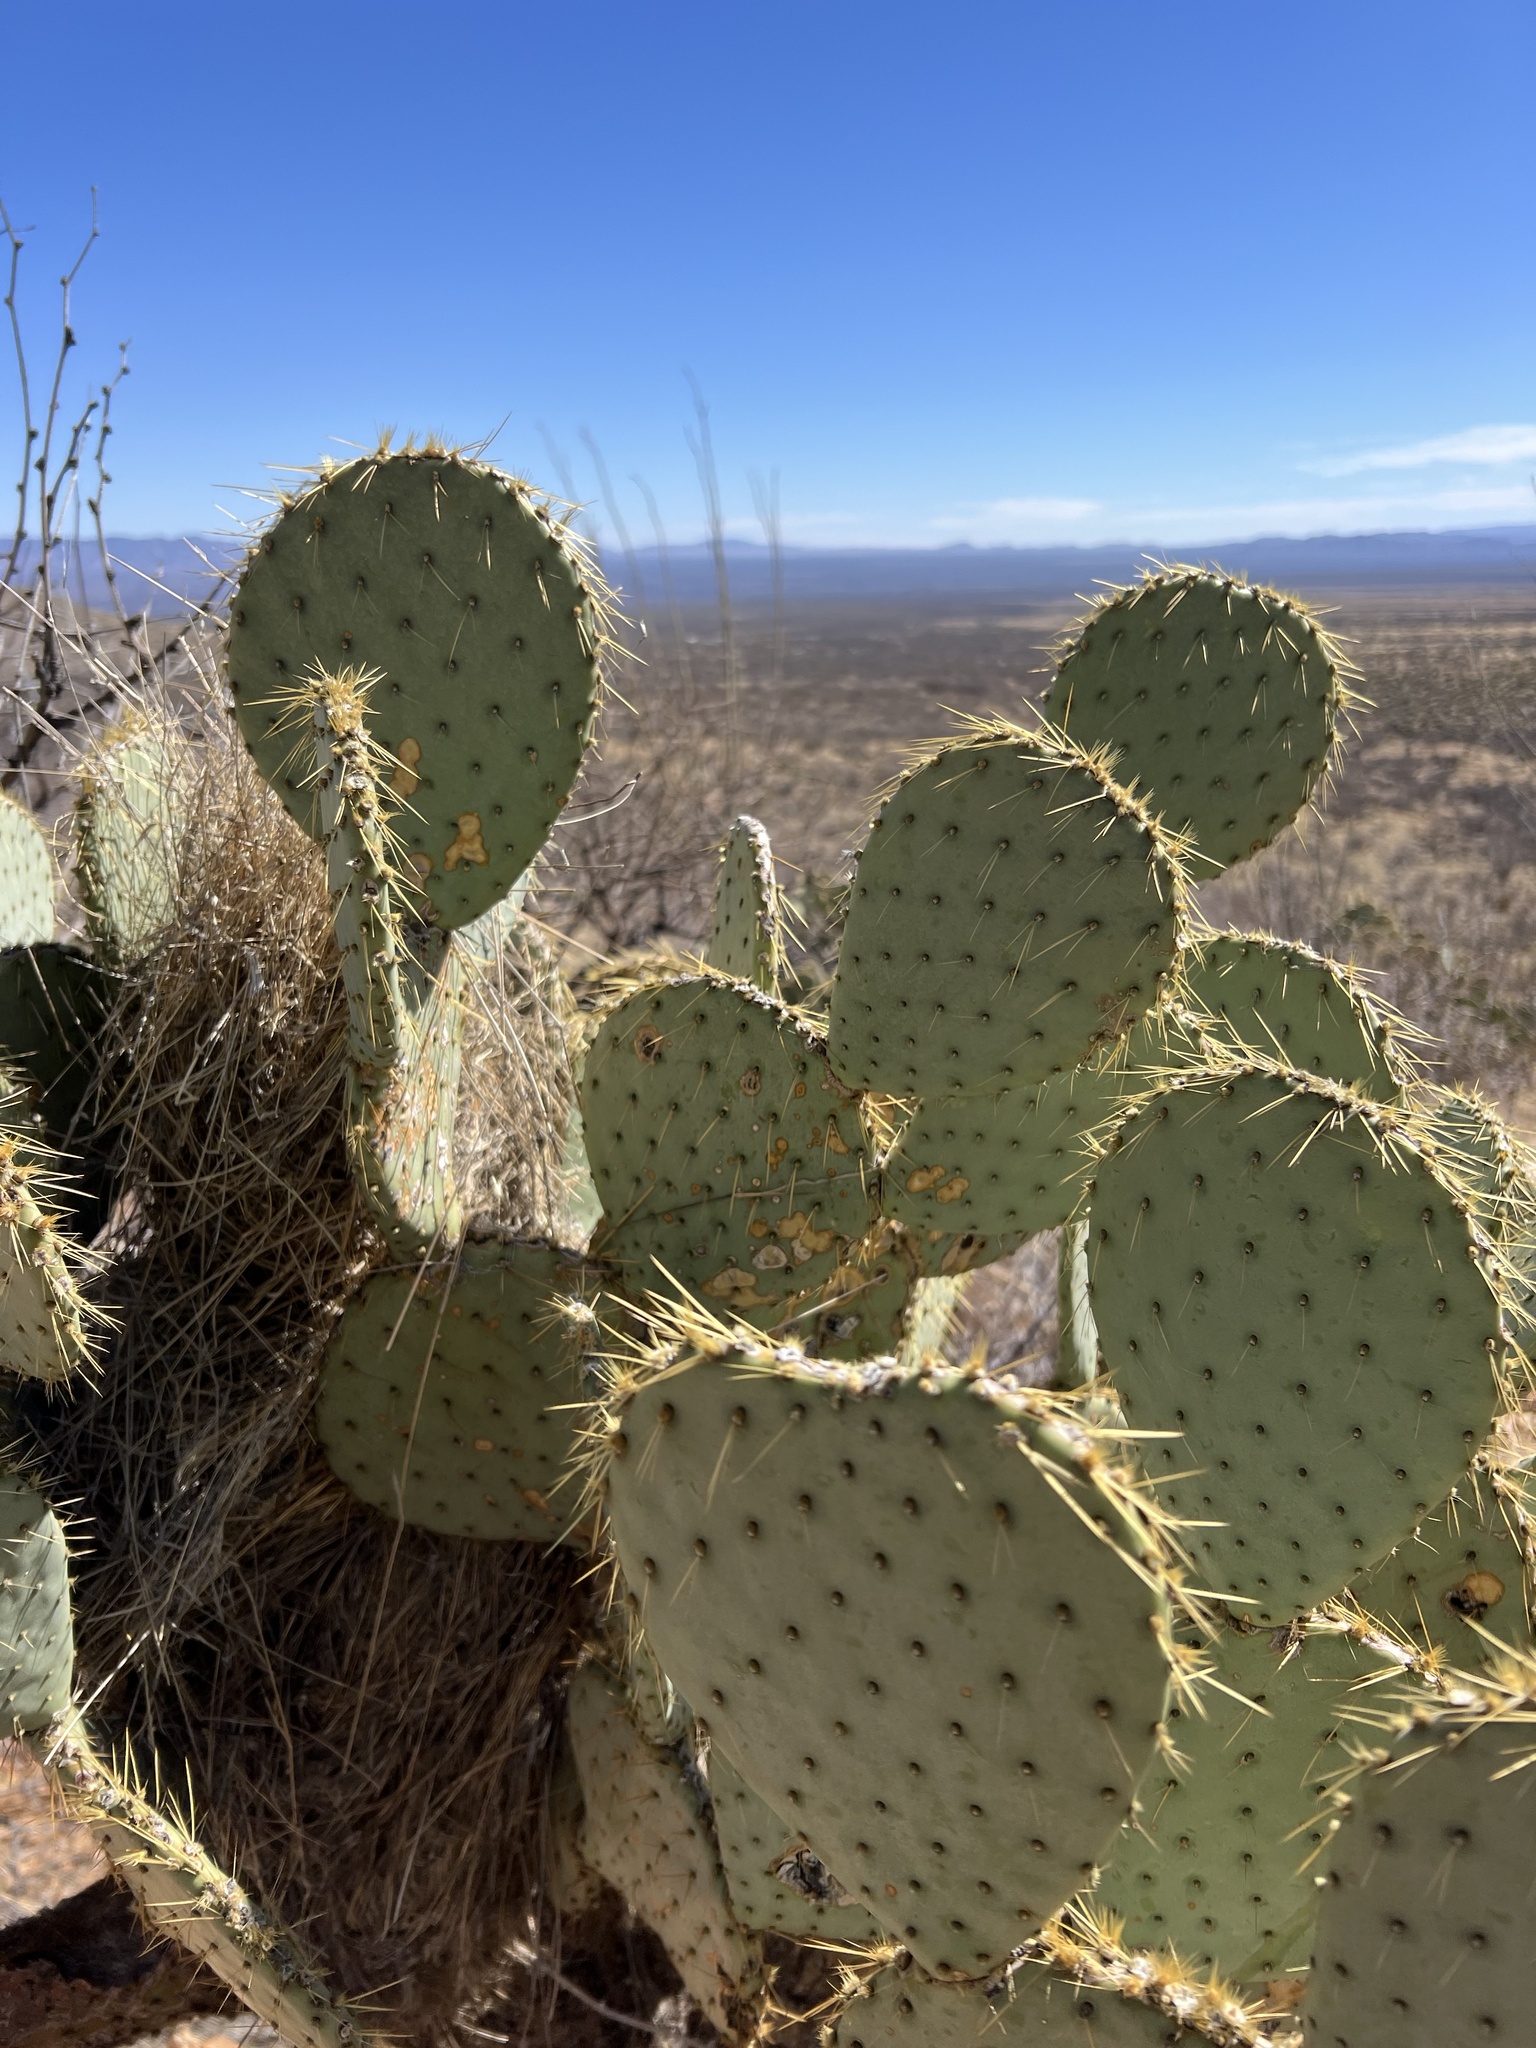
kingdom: Plantae
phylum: Tracheophyta
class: Magnoliopsida
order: Caryophyllales
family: Cactaceae
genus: Opuntia
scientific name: Opuntia chlorotica
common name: Dollar-joint prickly-pear
